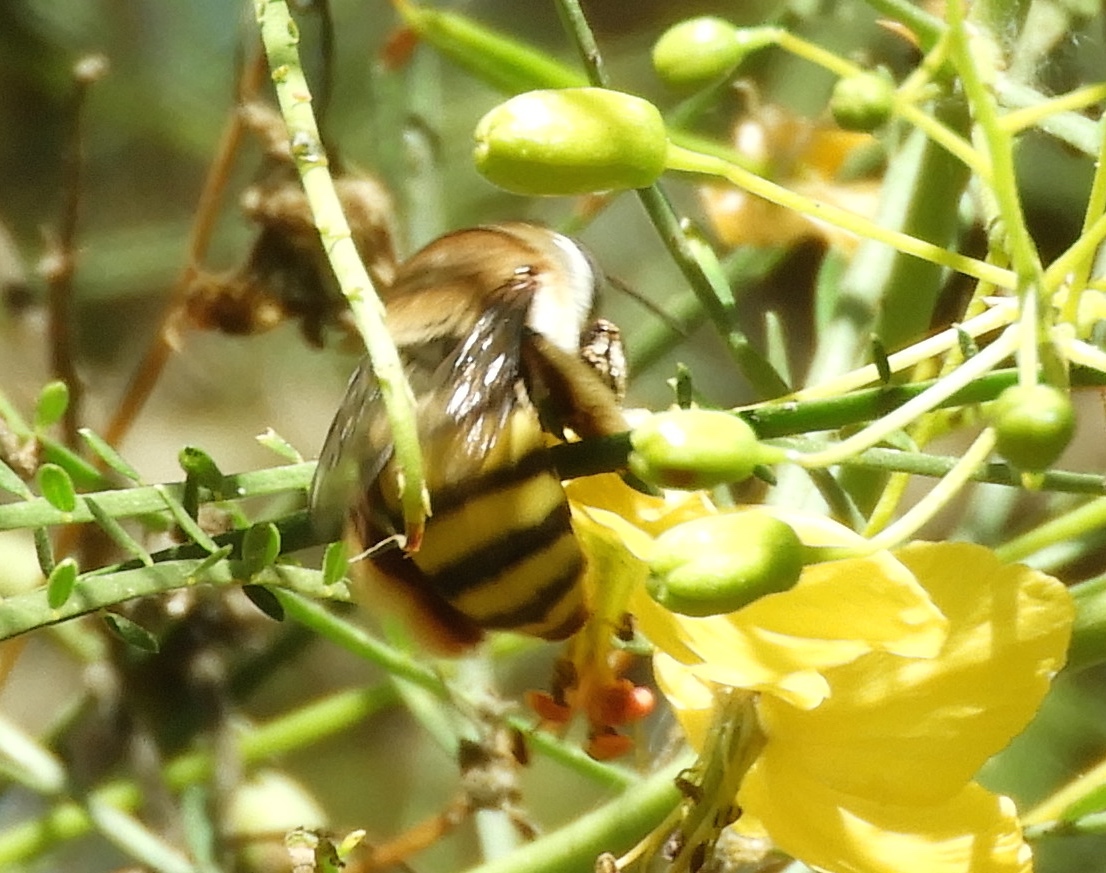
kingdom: Animalia
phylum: Arthropoda
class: Insecta
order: Hymenoptera
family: Apidae
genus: Centris
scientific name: Centris
